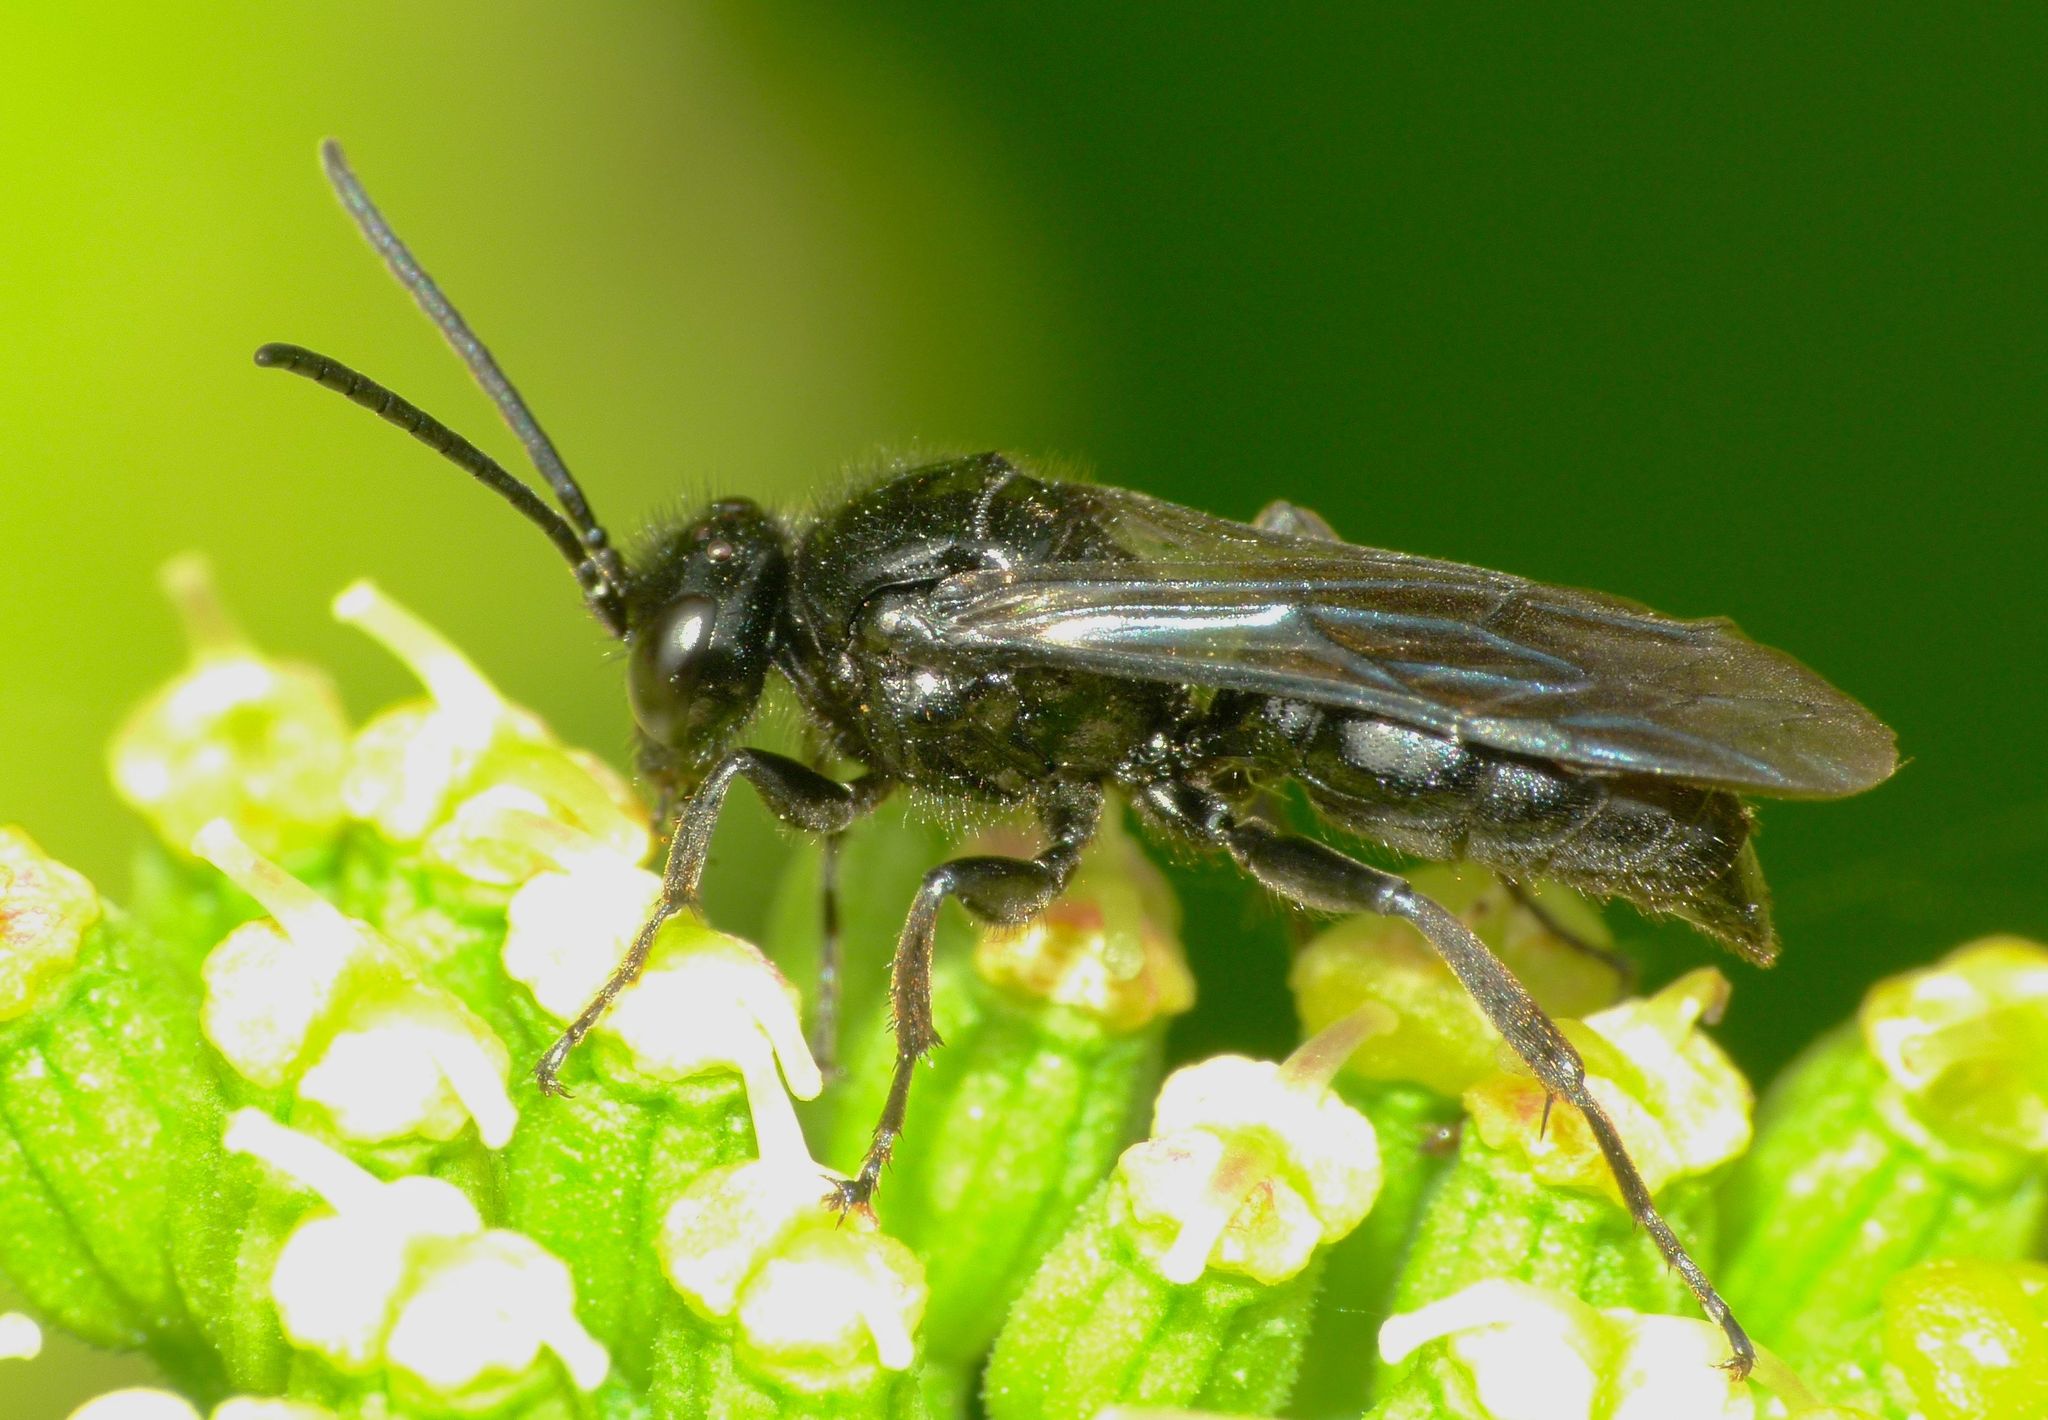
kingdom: Animalia
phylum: Arthropoda
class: Insecta
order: Hymenoptera
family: Crabronidae
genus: Argogorytes
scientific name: Argogorytes carbonarius
